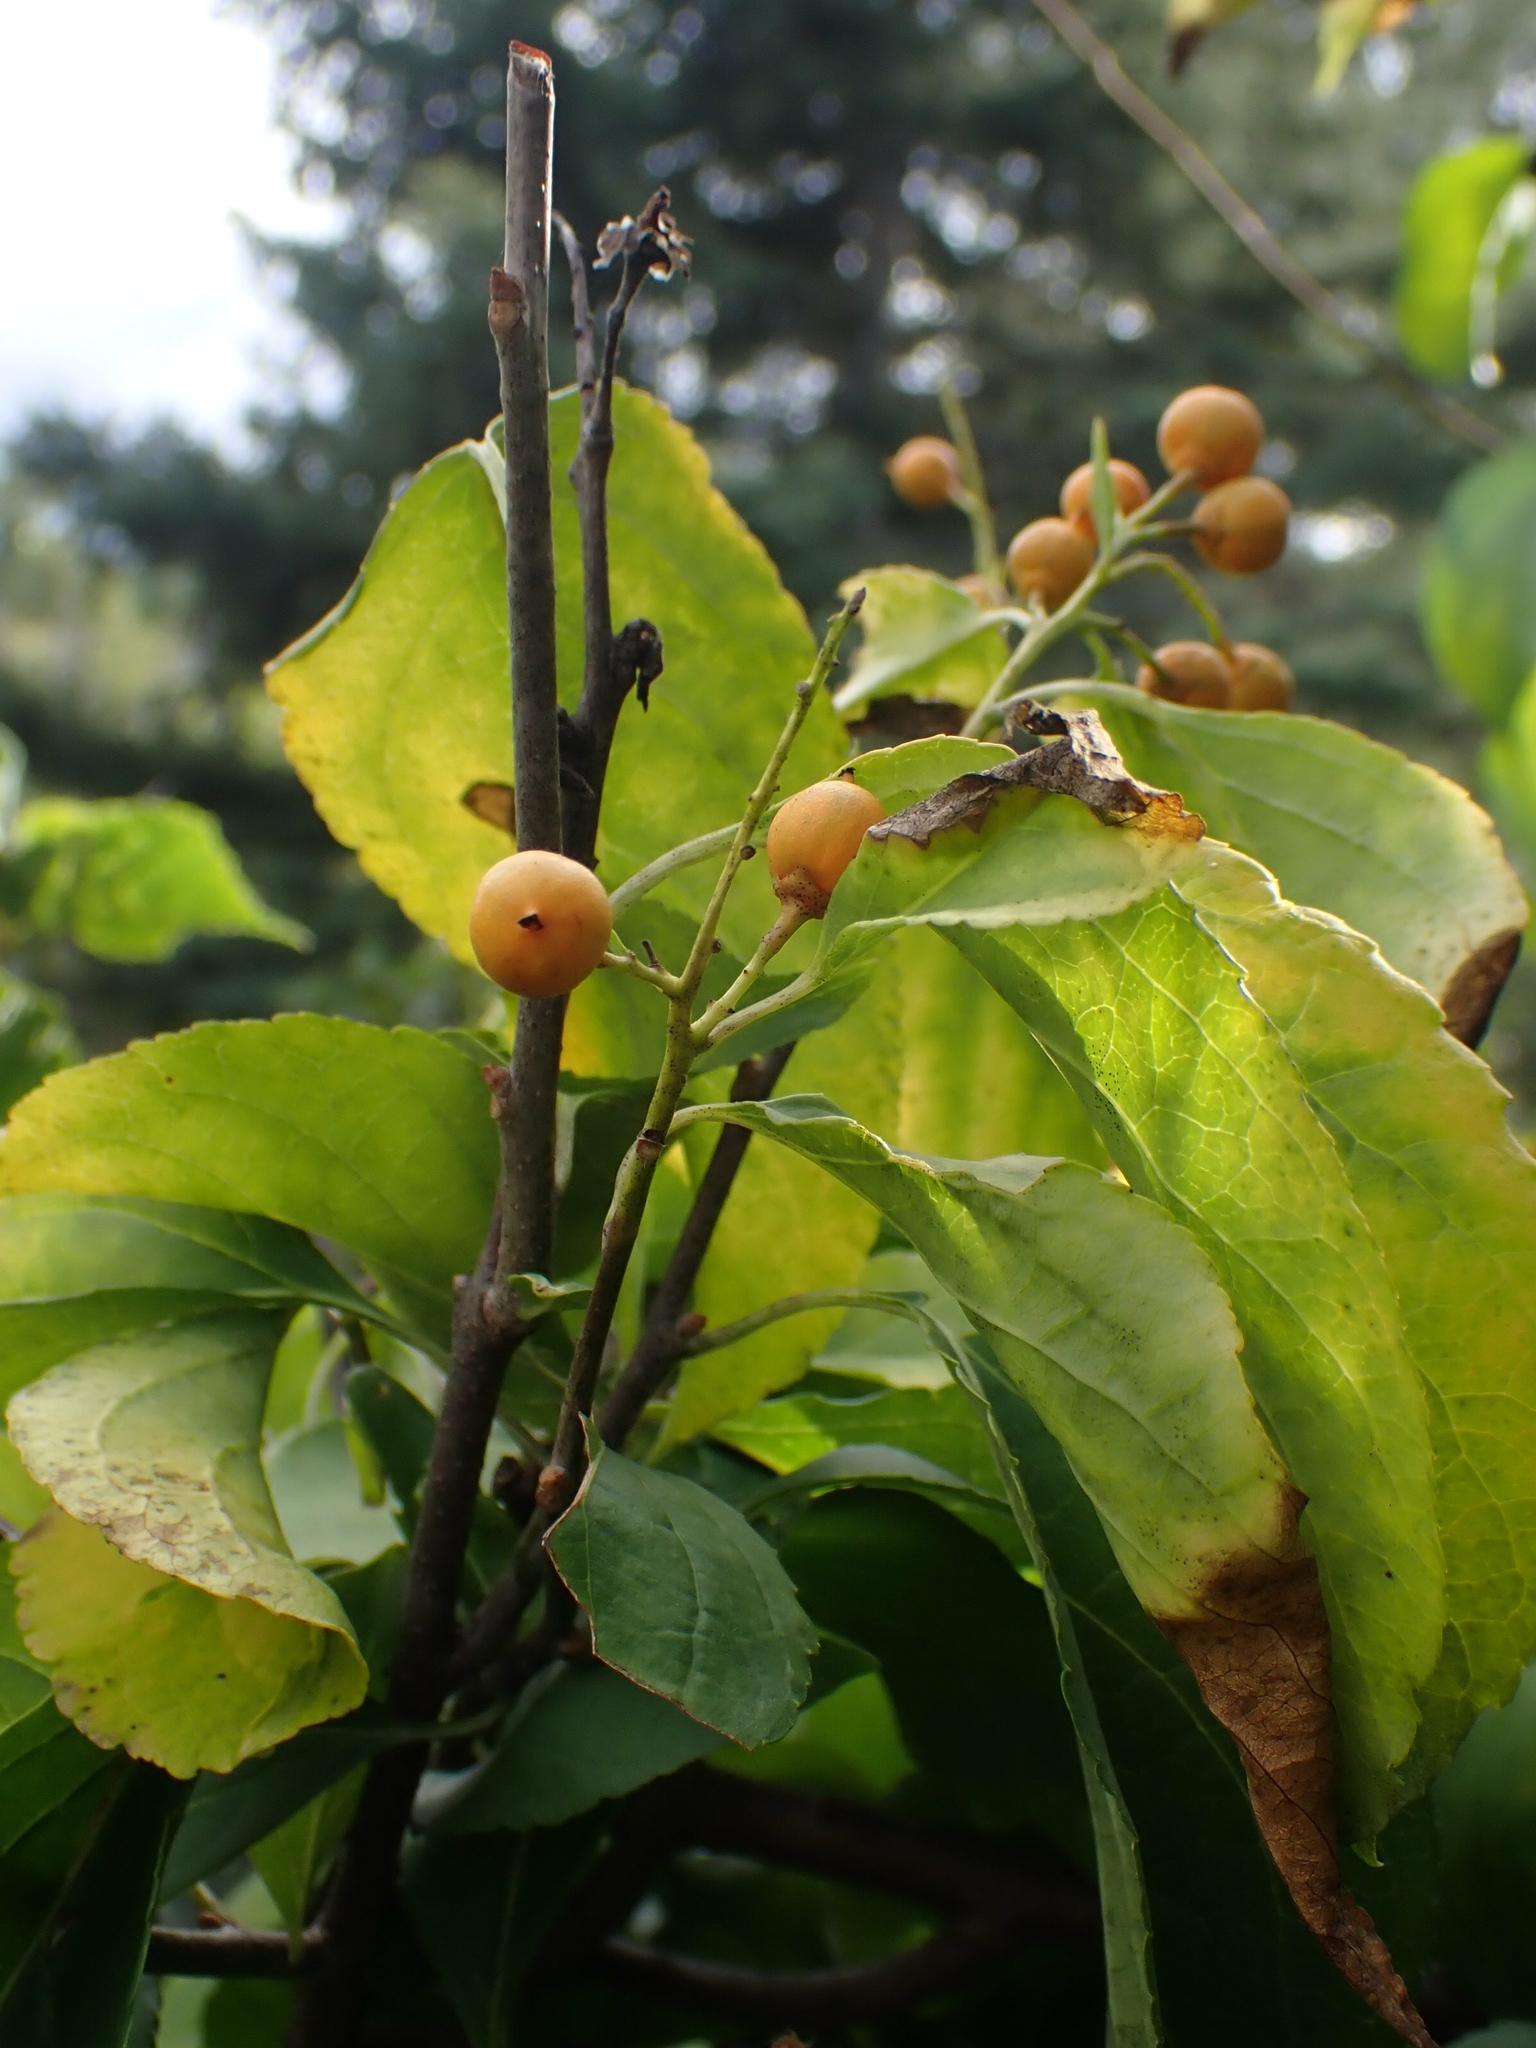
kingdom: Plantae
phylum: Tracheophyta
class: Magnoliopsida
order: Celastrales
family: Celastraceae
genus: Celastrus
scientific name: Celastrus scandens
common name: American bittersweet
